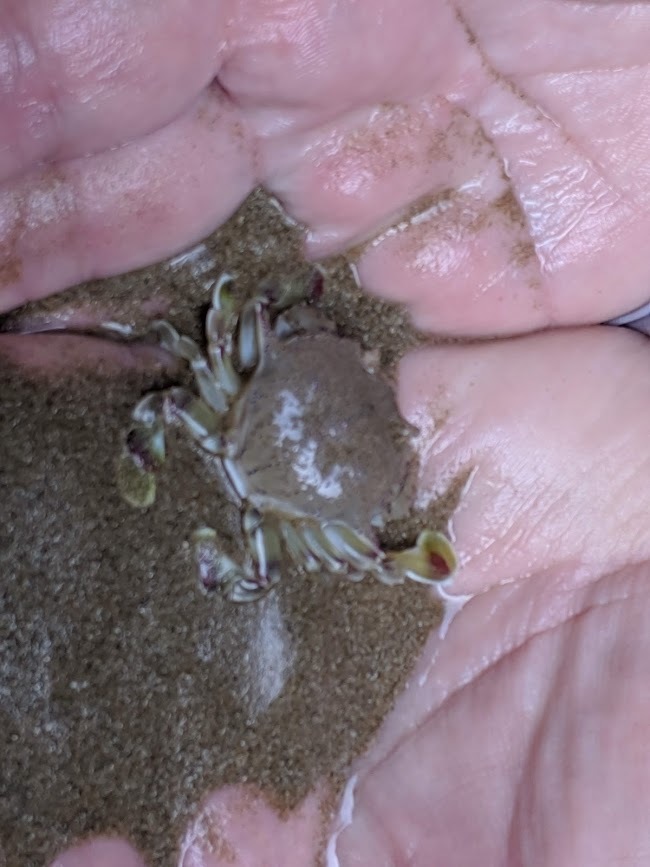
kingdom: Animalia
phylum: Arthropoda
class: Malacostraca
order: Decapoda
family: Matutidae
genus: Matuta
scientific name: Matuta victor
